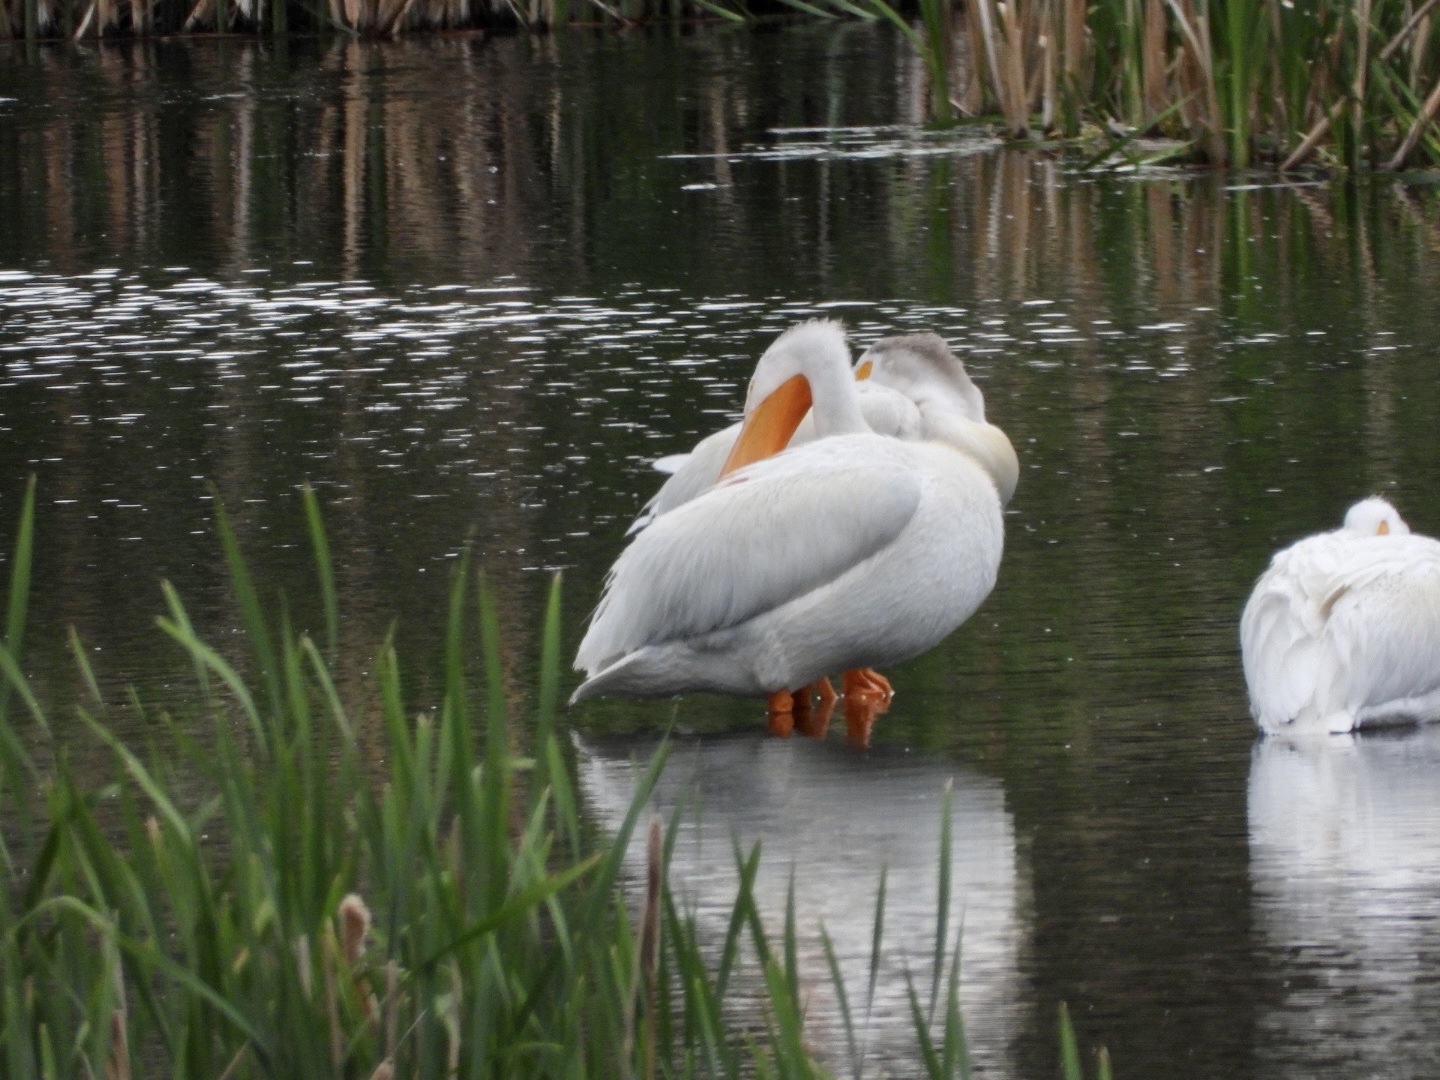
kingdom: Animalia
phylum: Chordata
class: Aves
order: Pelecaniformes
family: Pelecanidae
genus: Pelecanus
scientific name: Pelecanus erythrorhynchos
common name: American white pelican
